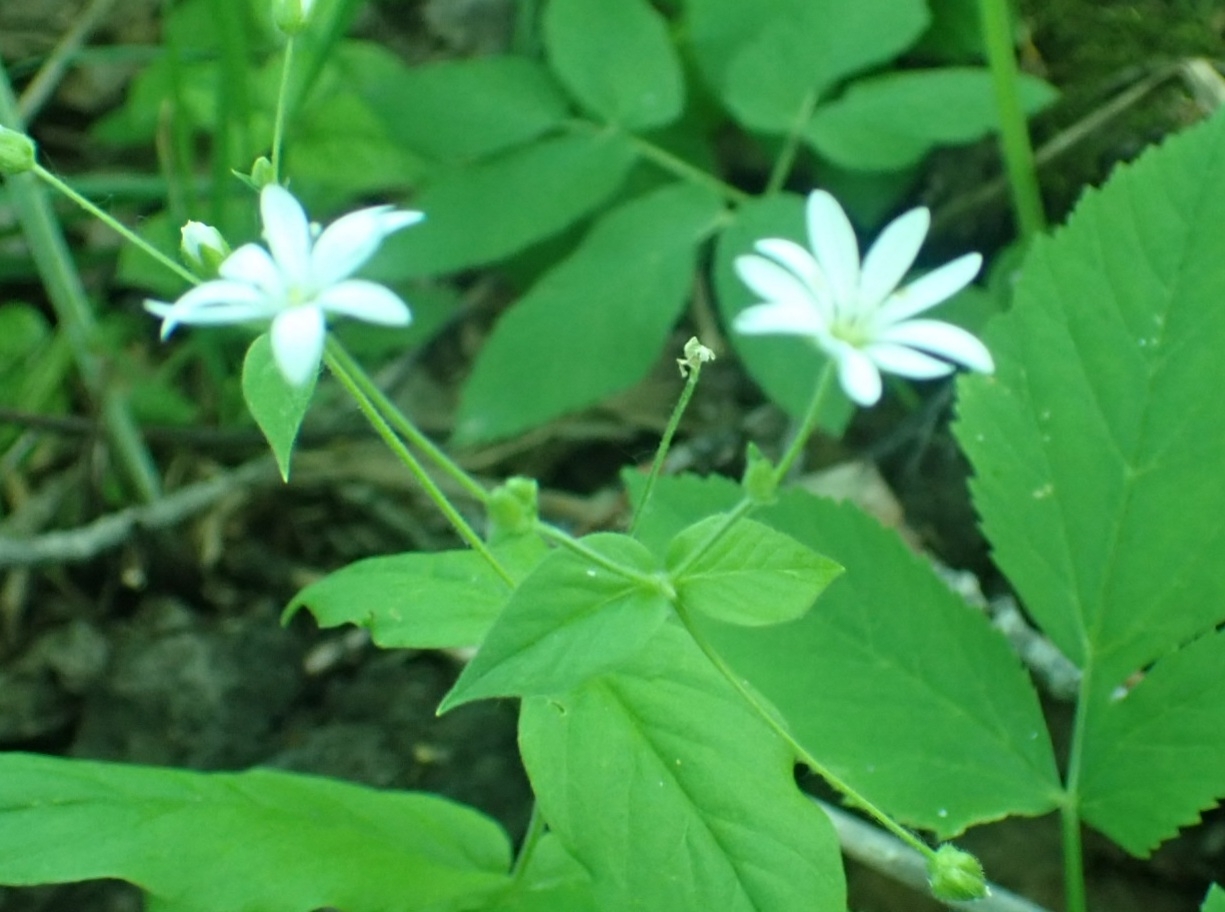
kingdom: Plantae
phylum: Tracheophyta
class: Magnoliopsida
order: Caryophyllales
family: Caryophyllaceae
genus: Stellaria
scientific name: Stellaria bungeana
